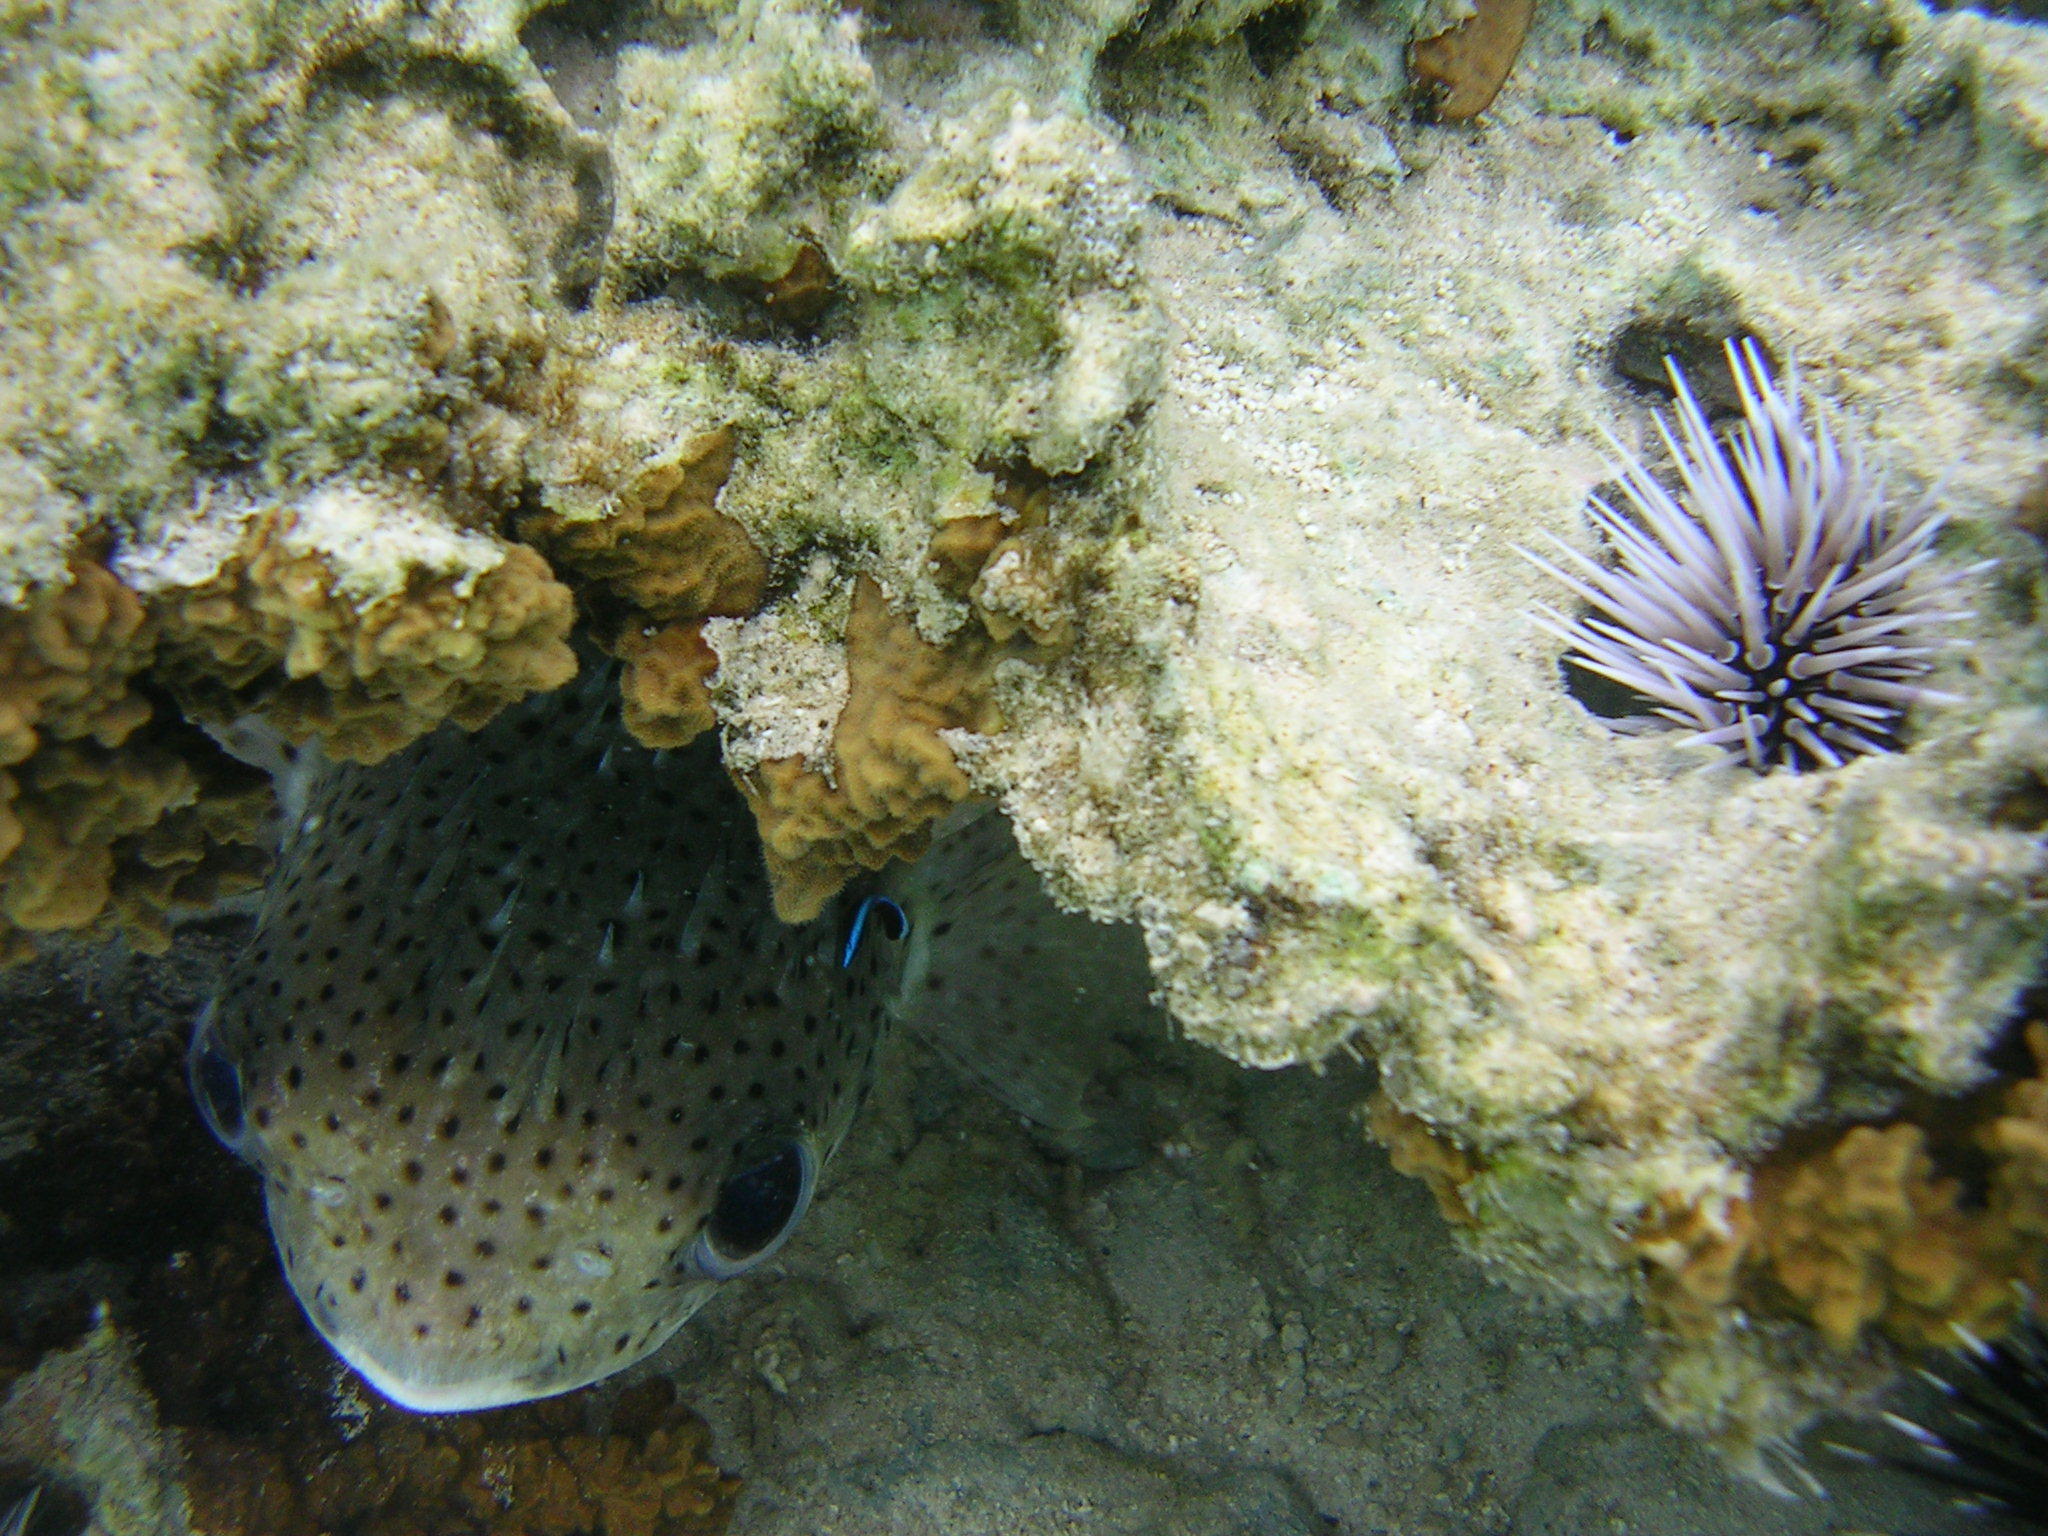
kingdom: Animalia
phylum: Chordata
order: Tetraodontiformes
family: Diodontidae
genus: Diodon
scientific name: Diodon hystrix
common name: Giant porcupinefish
